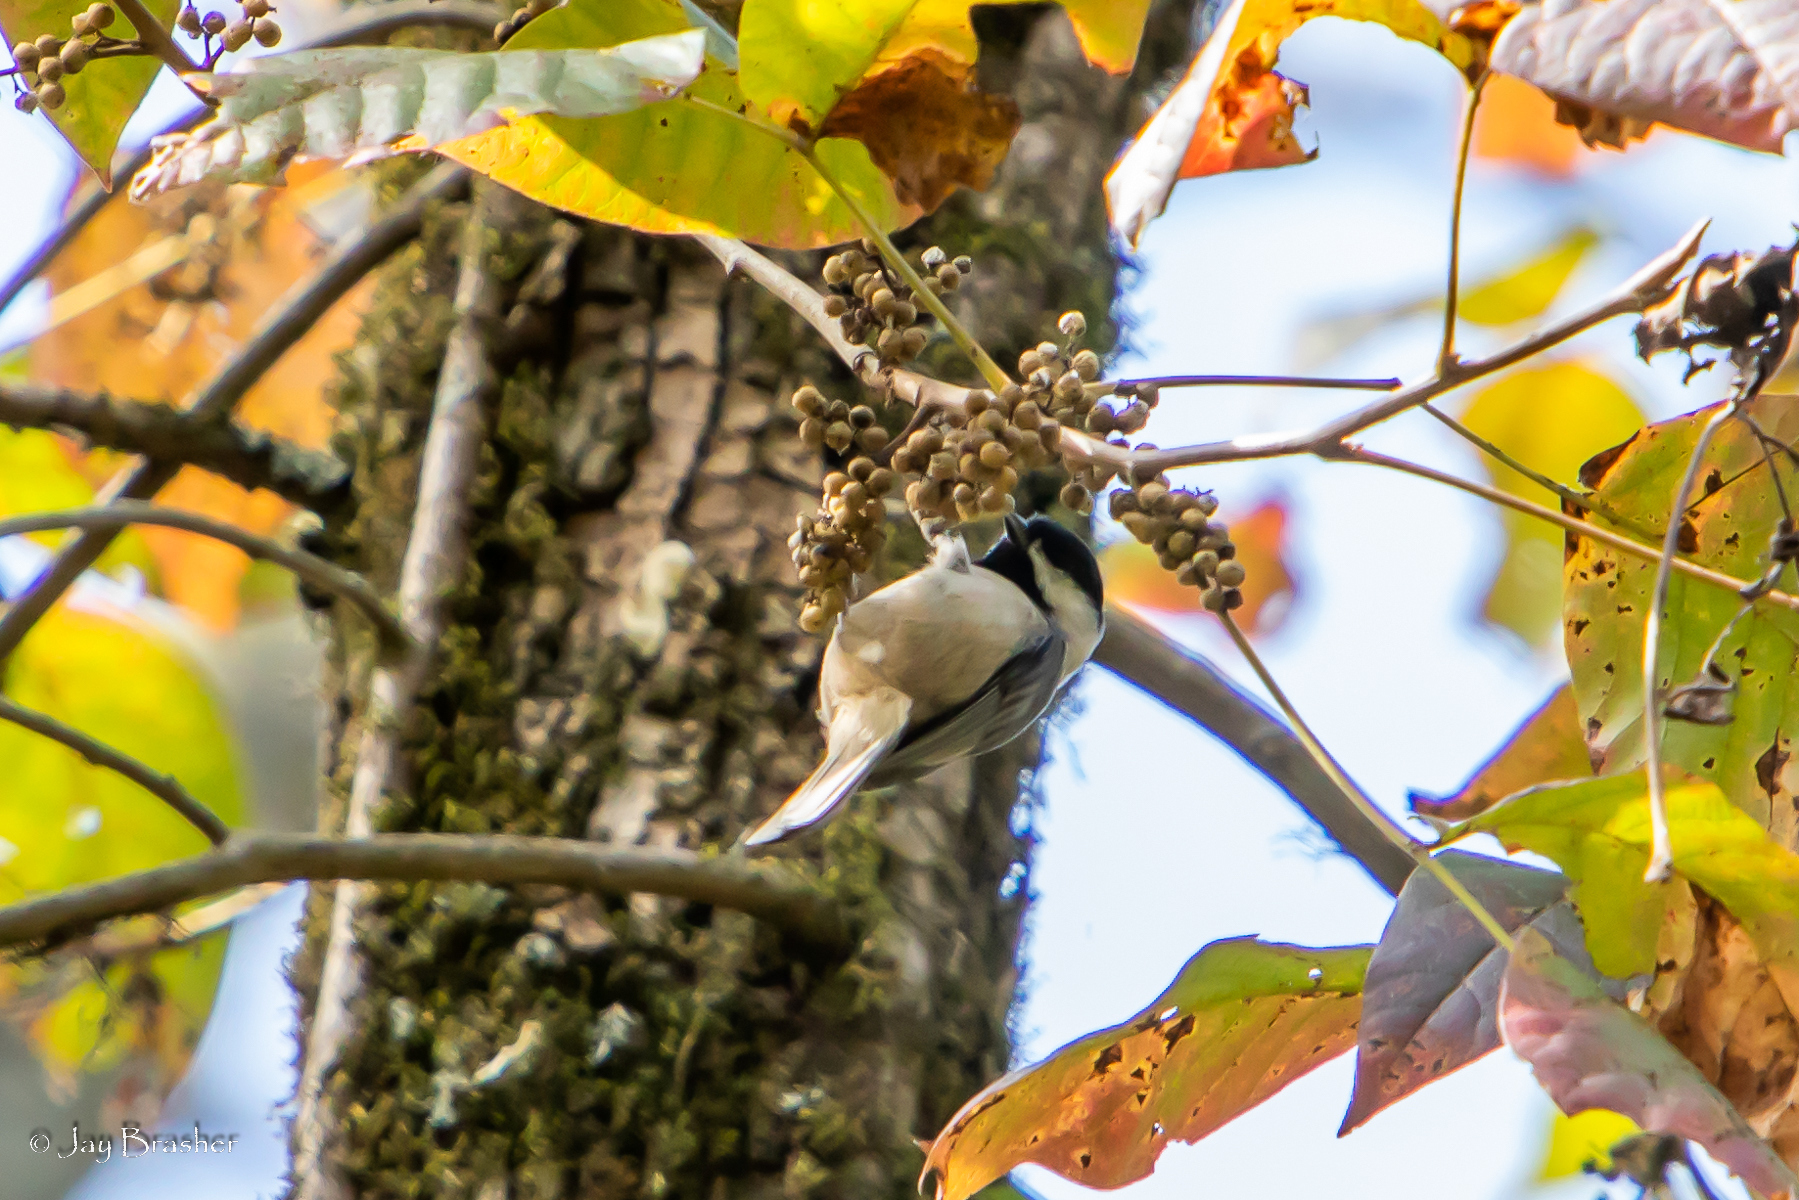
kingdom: Plantae
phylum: Tracheophyta
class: Magnoliopsida
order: Sapindales
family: Anacardiaceae
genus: Toxicodendron
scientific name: Toxicodendron radicans
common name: Poison ivy
